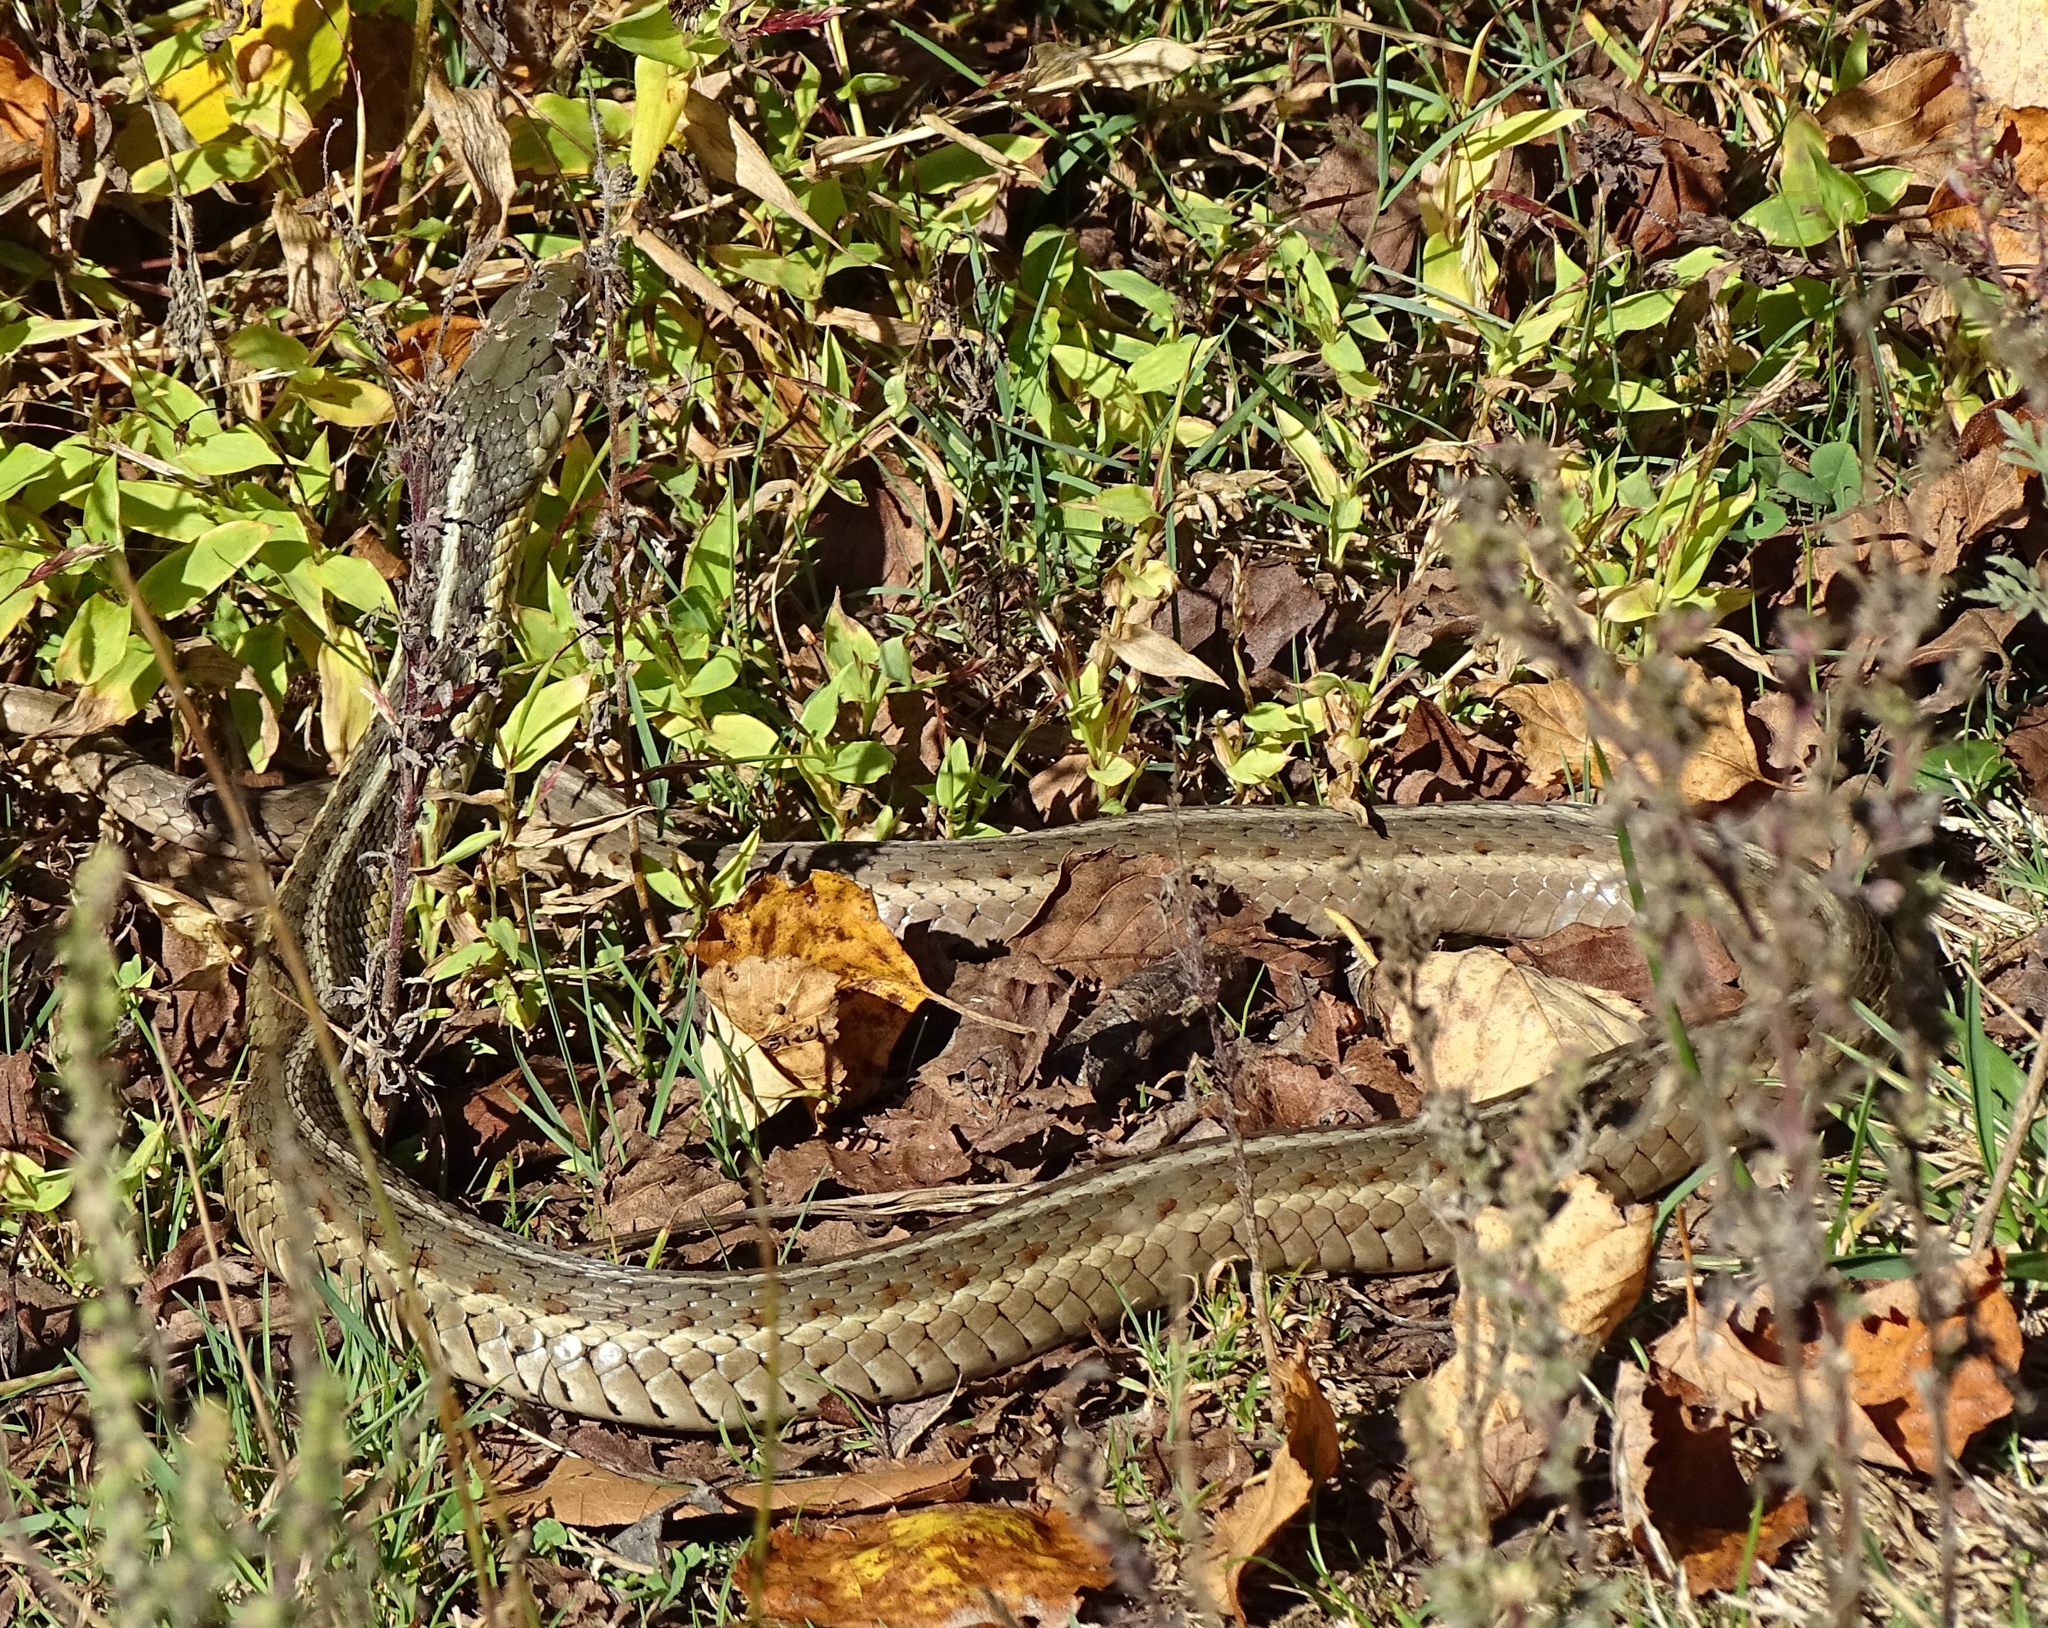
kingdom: Animalia
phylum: Chordata
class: Squamata
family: Colubridae
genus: Thamnophis
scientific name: Thamnophis sirtalis
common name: Common garter snake
